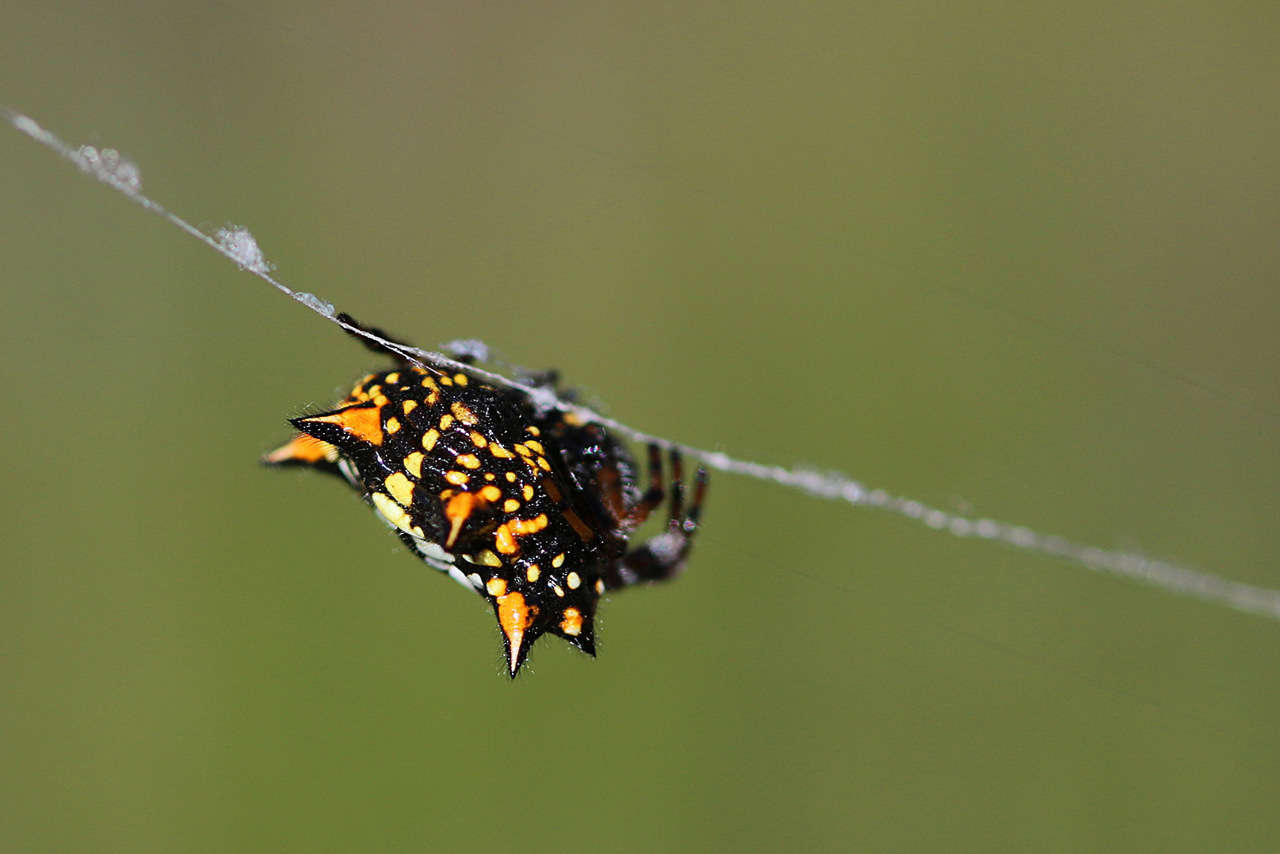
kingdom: Animalia
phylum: Arthropoda
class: Arachnida
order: Araneae
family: Araneidae
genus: Austracantha
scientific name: Austracantha minax
